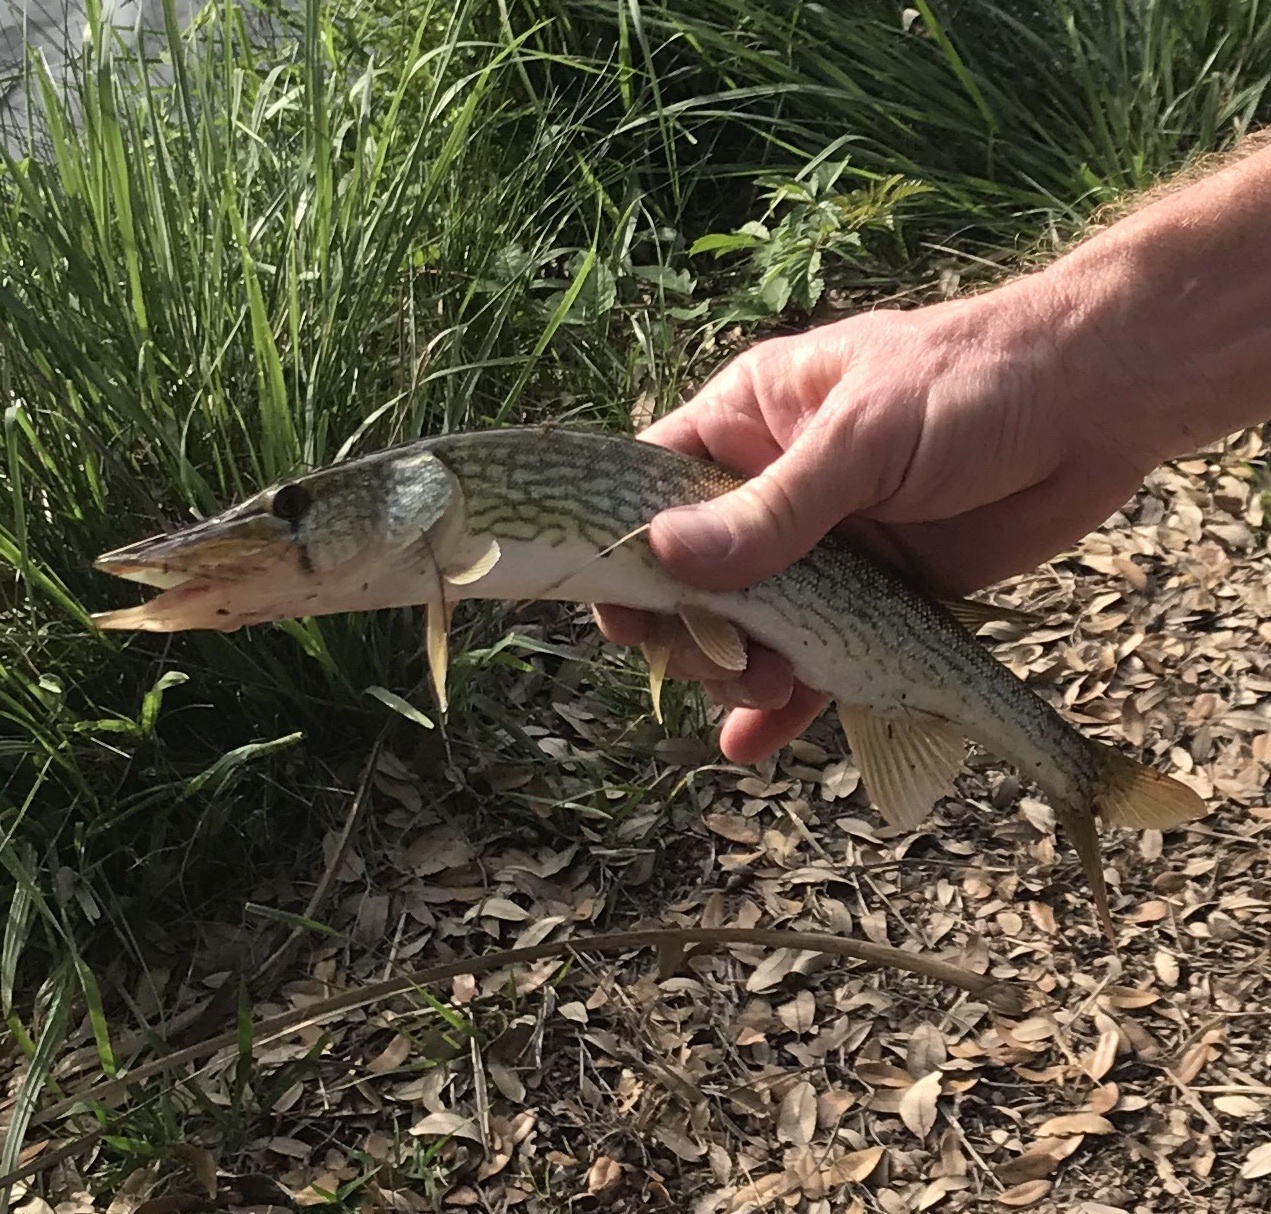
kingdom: Animalia
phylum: Chordata
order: Esociformes
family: Esocidae
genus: Esox
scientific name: Esox niger
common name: Chain pickerel
